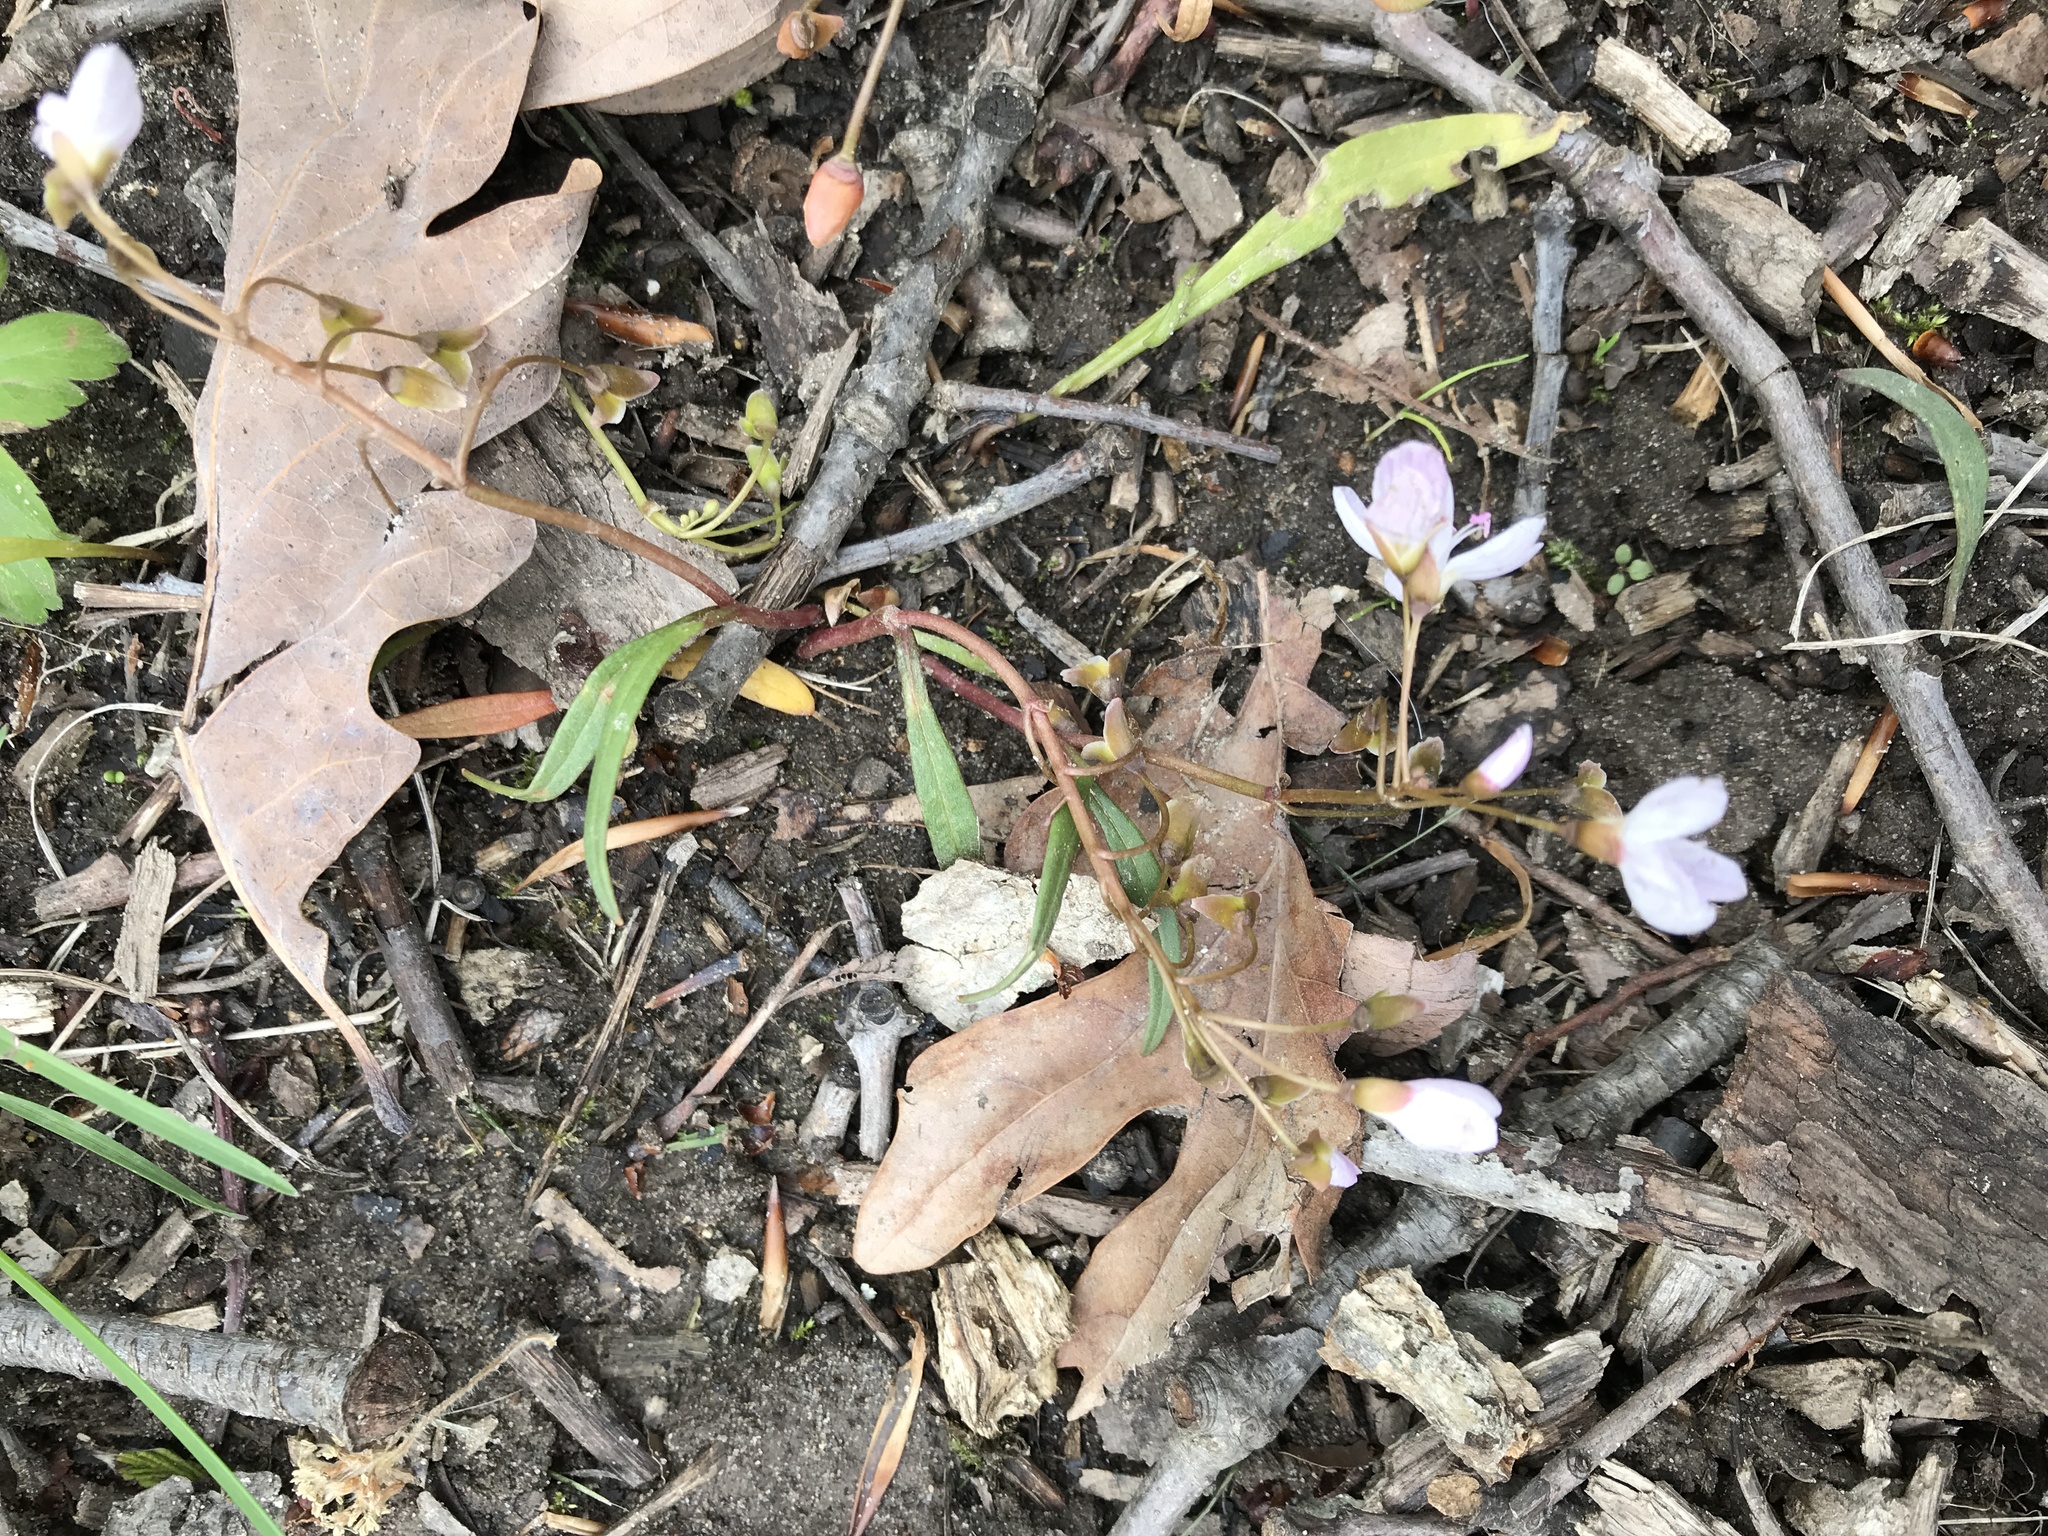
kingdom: Plantae
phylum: Tracheophyta
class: Magnoliopsida
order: Caryophyllales
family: Montiaceae
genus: Claytonia
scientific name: Claytonia virginica
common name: Virginia springbeauty
